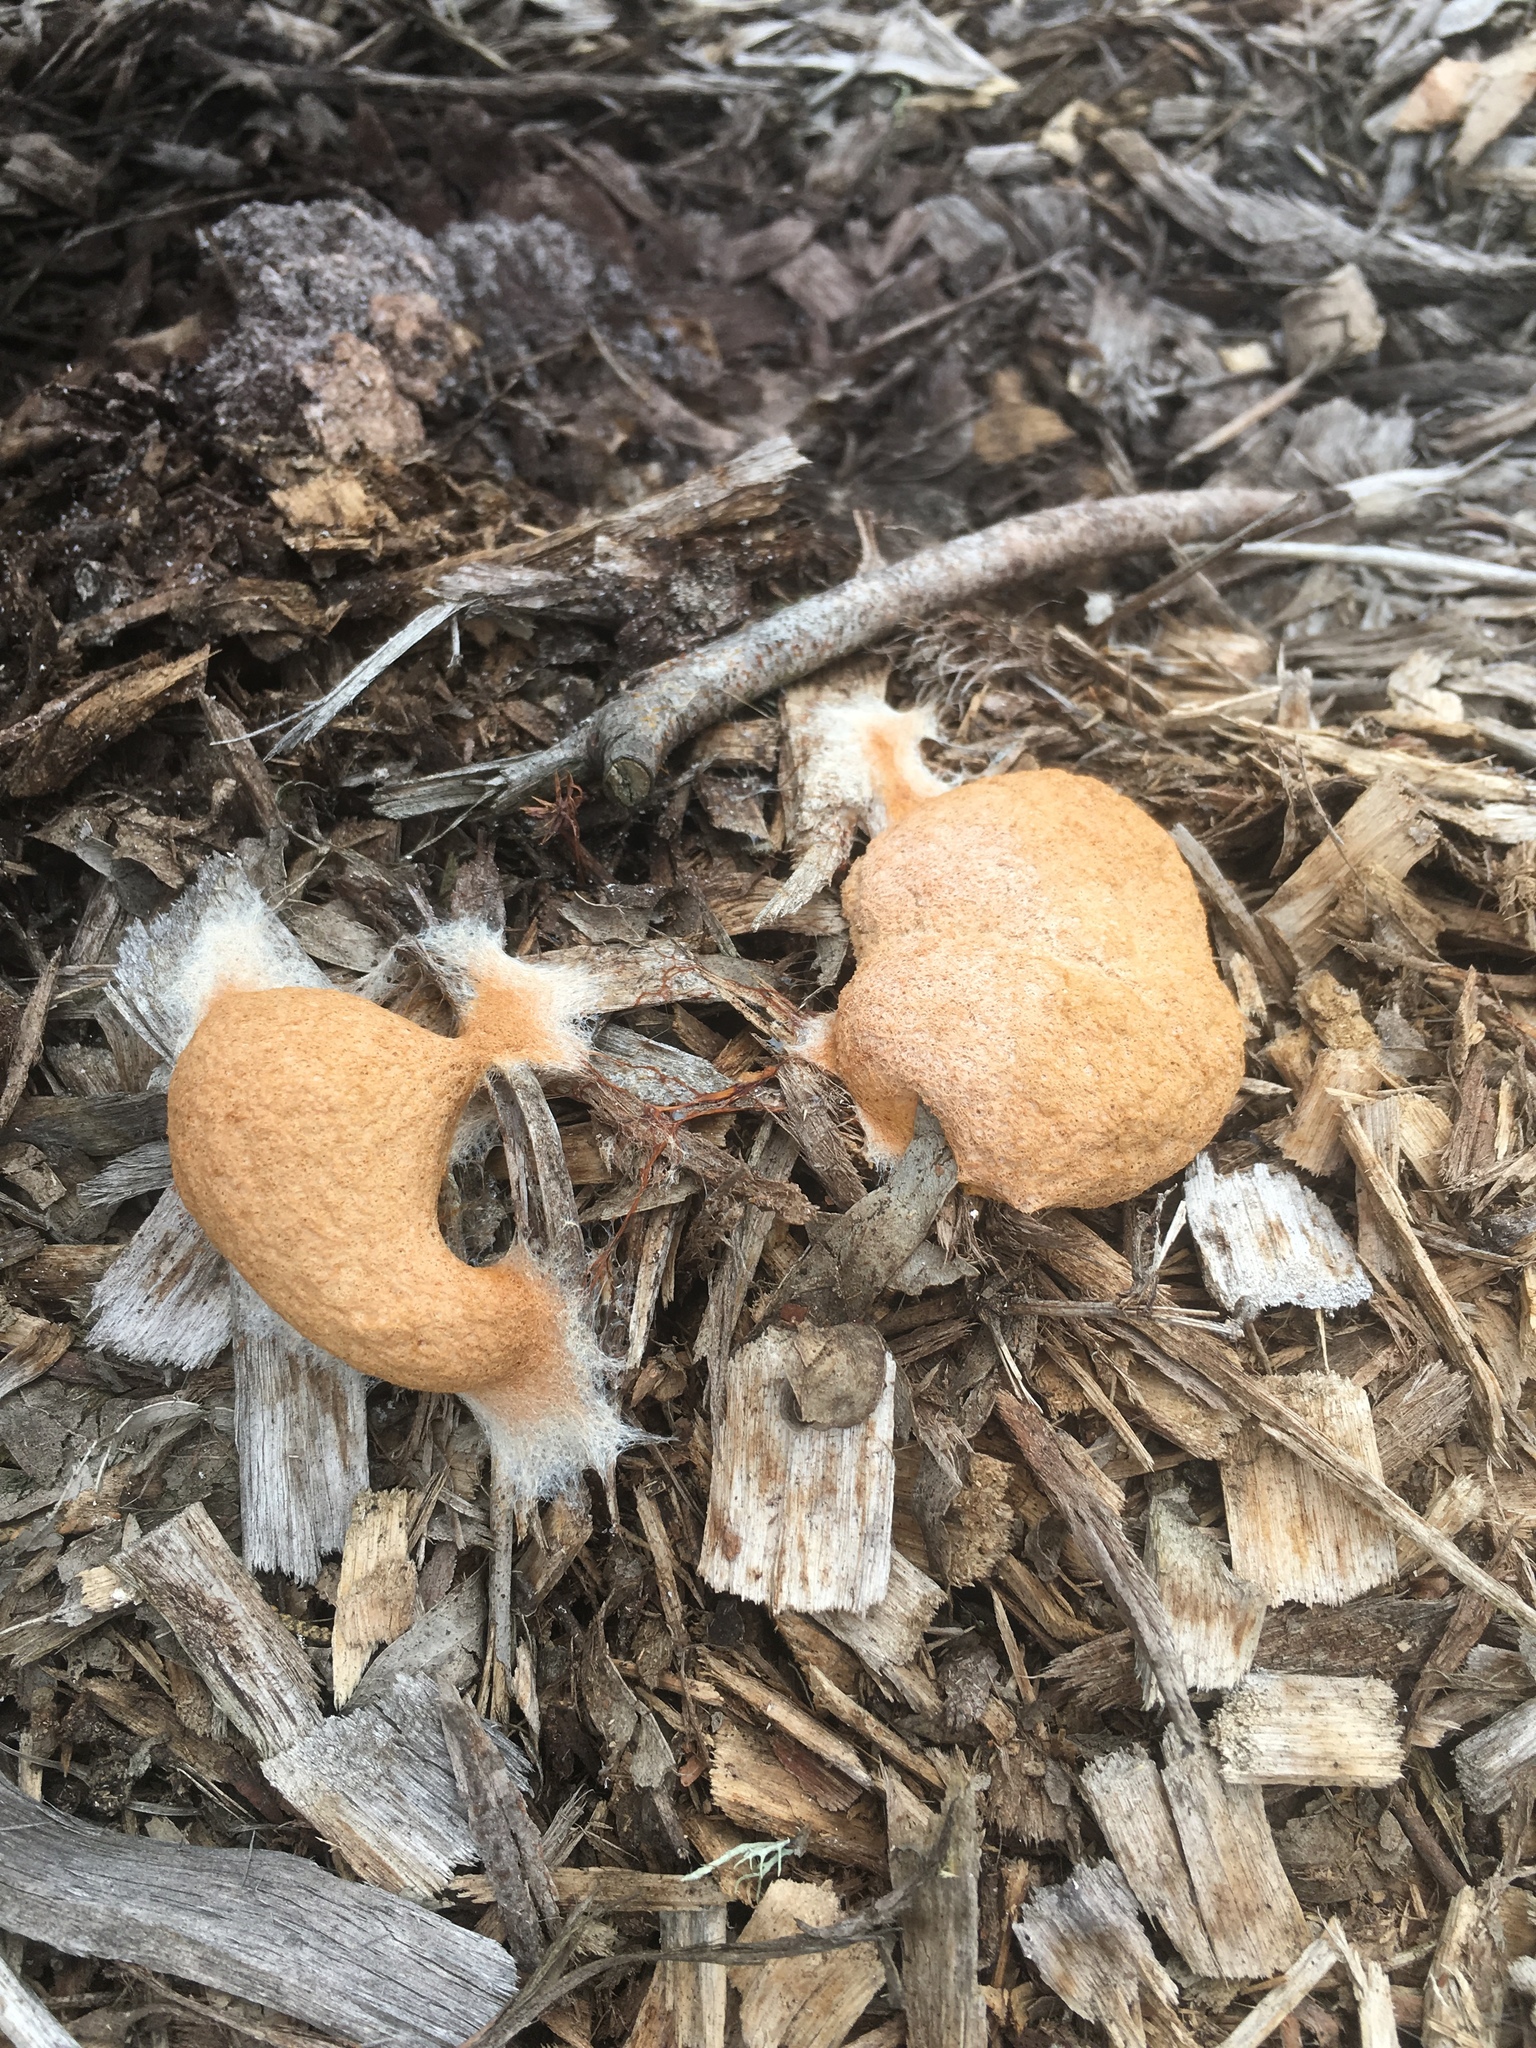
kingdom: Protozoa
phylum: Mycetozoa
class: Myxomycetes
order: Physarales
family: Physaraceae
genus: Fuligo
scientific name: Fuligo septica
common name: Dog vomit slime mold
